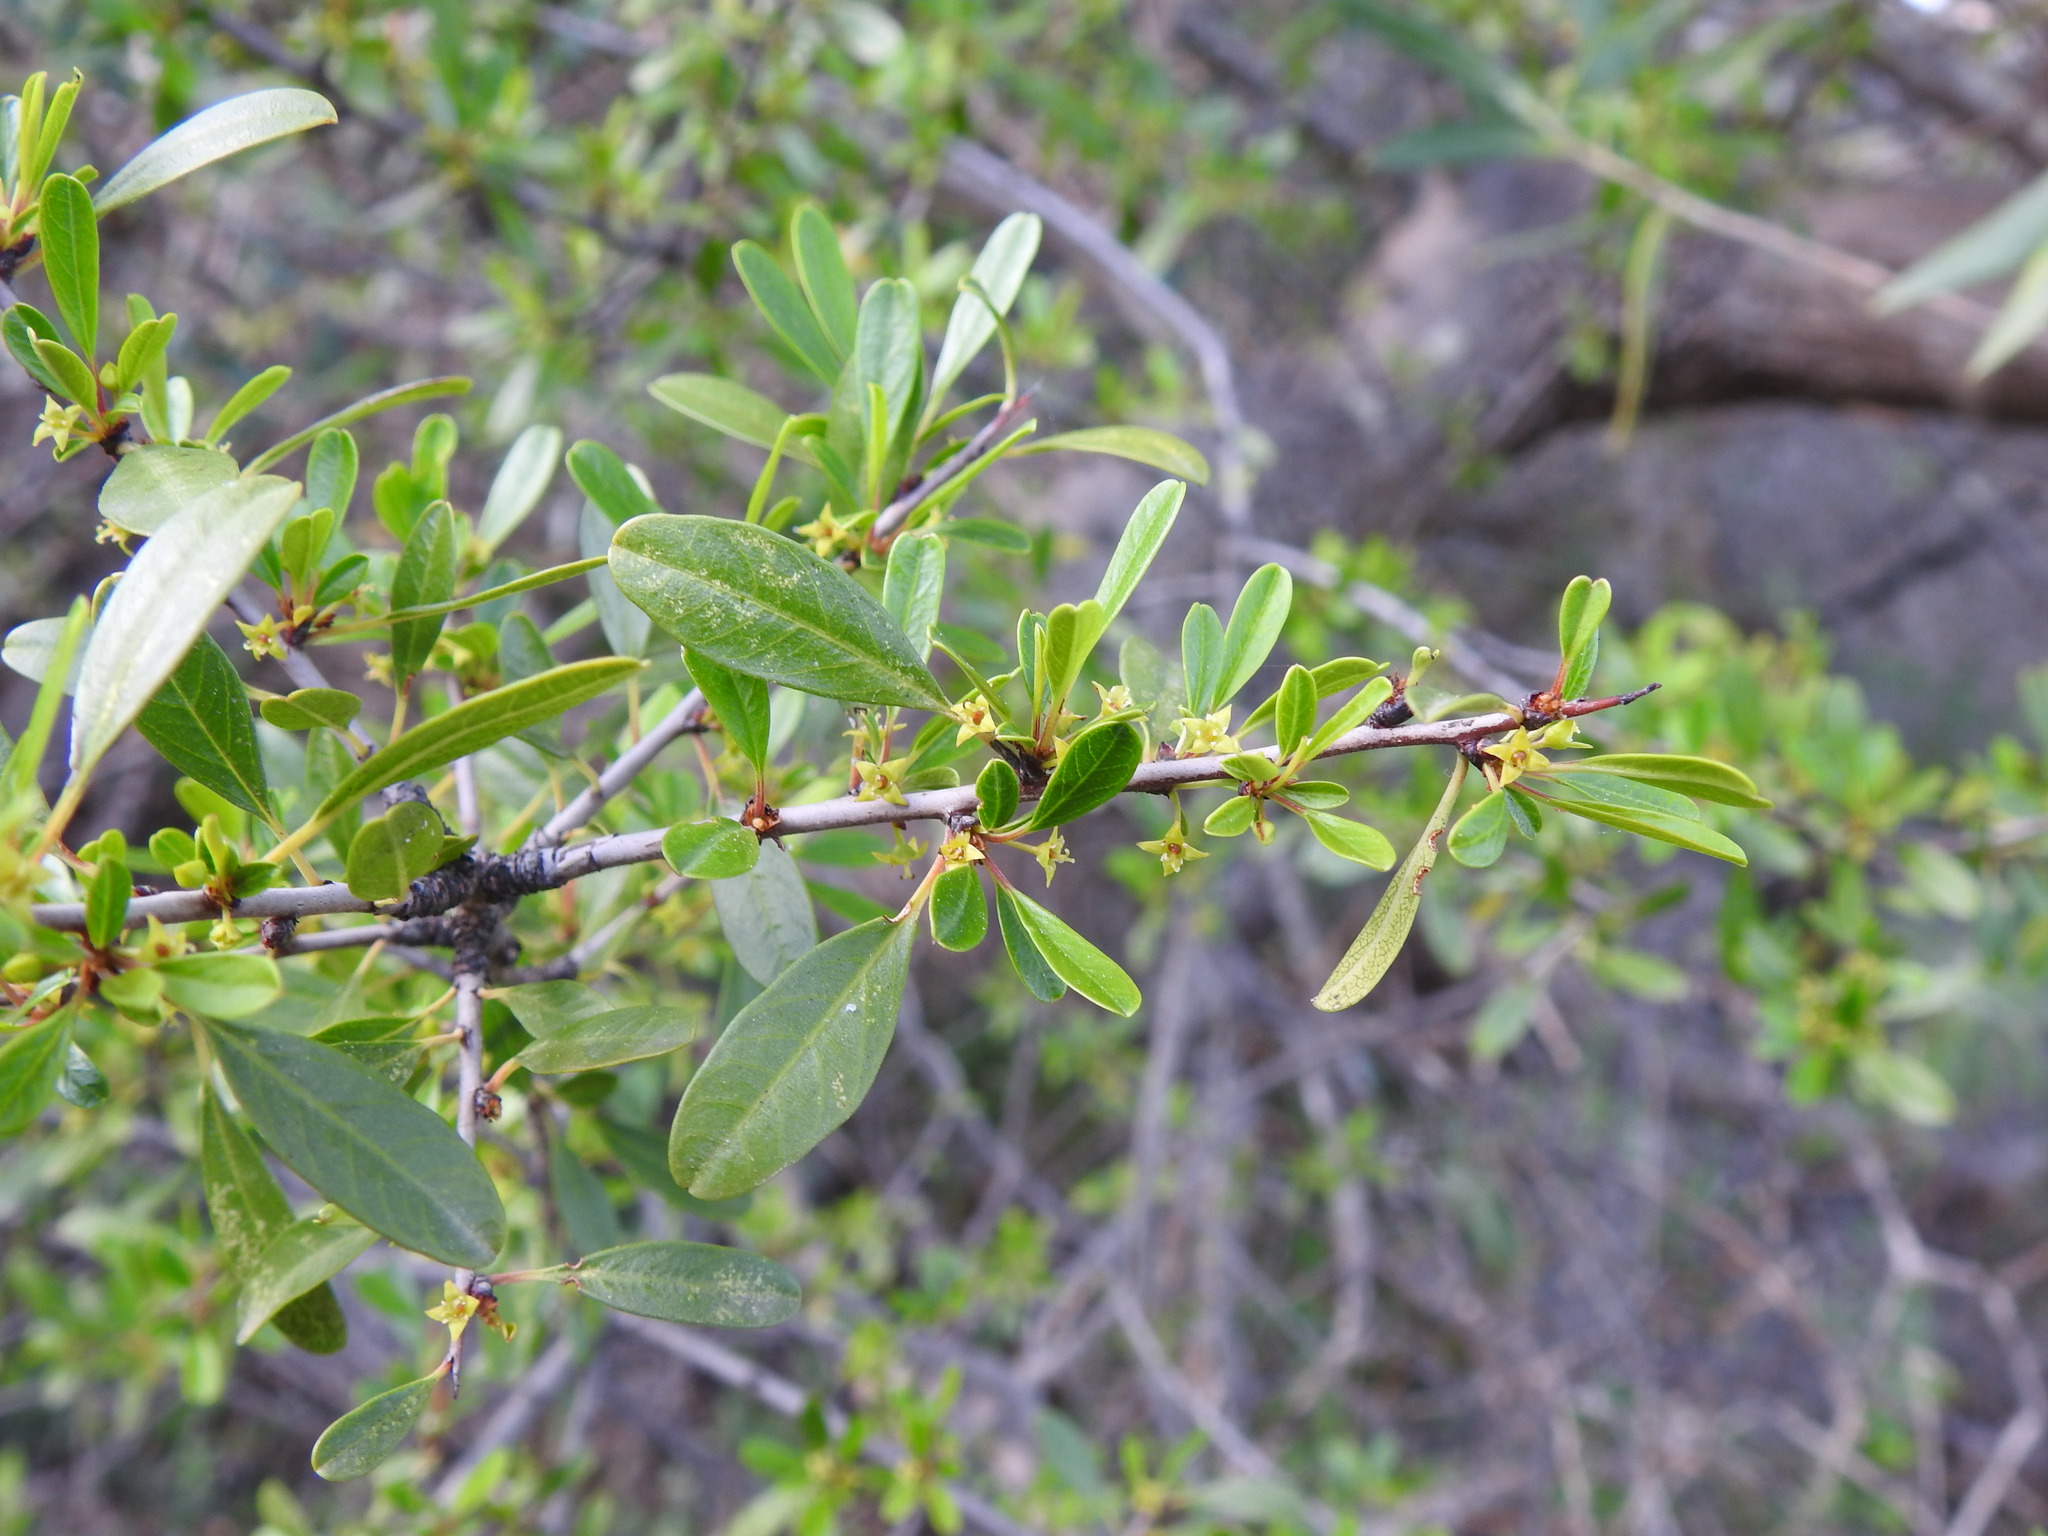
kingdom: Plantae
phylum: Tracheophyta
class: Magnoliopsida
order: Rosales
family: Rhamnaceae
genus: Rhamnus
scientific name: Rhamnus oleoides
